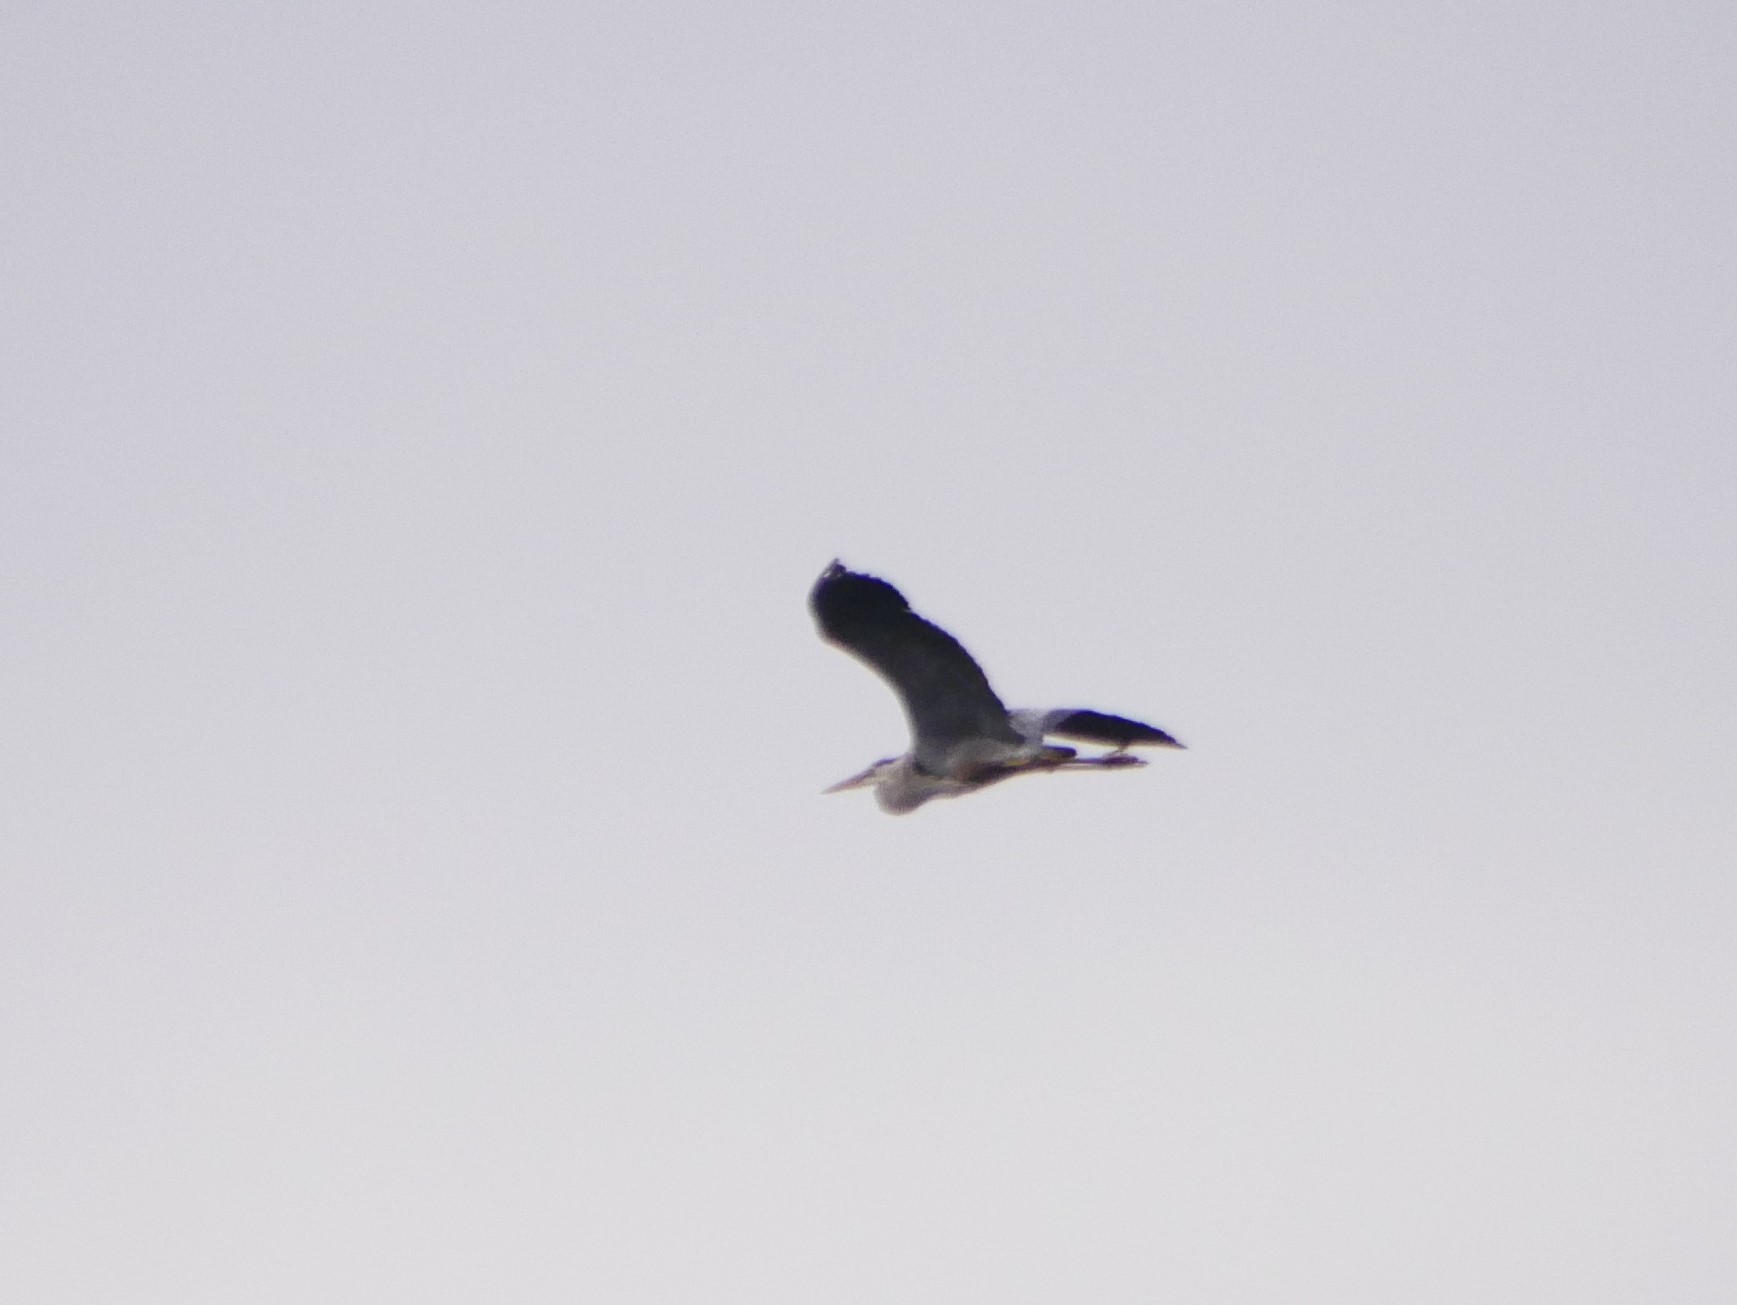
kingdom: Animalia
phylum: Chordata
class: Aves
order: Pelecaniformes
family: Ardeidae
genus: Ardea
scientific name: Ardea herodias
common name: Great blue heron
